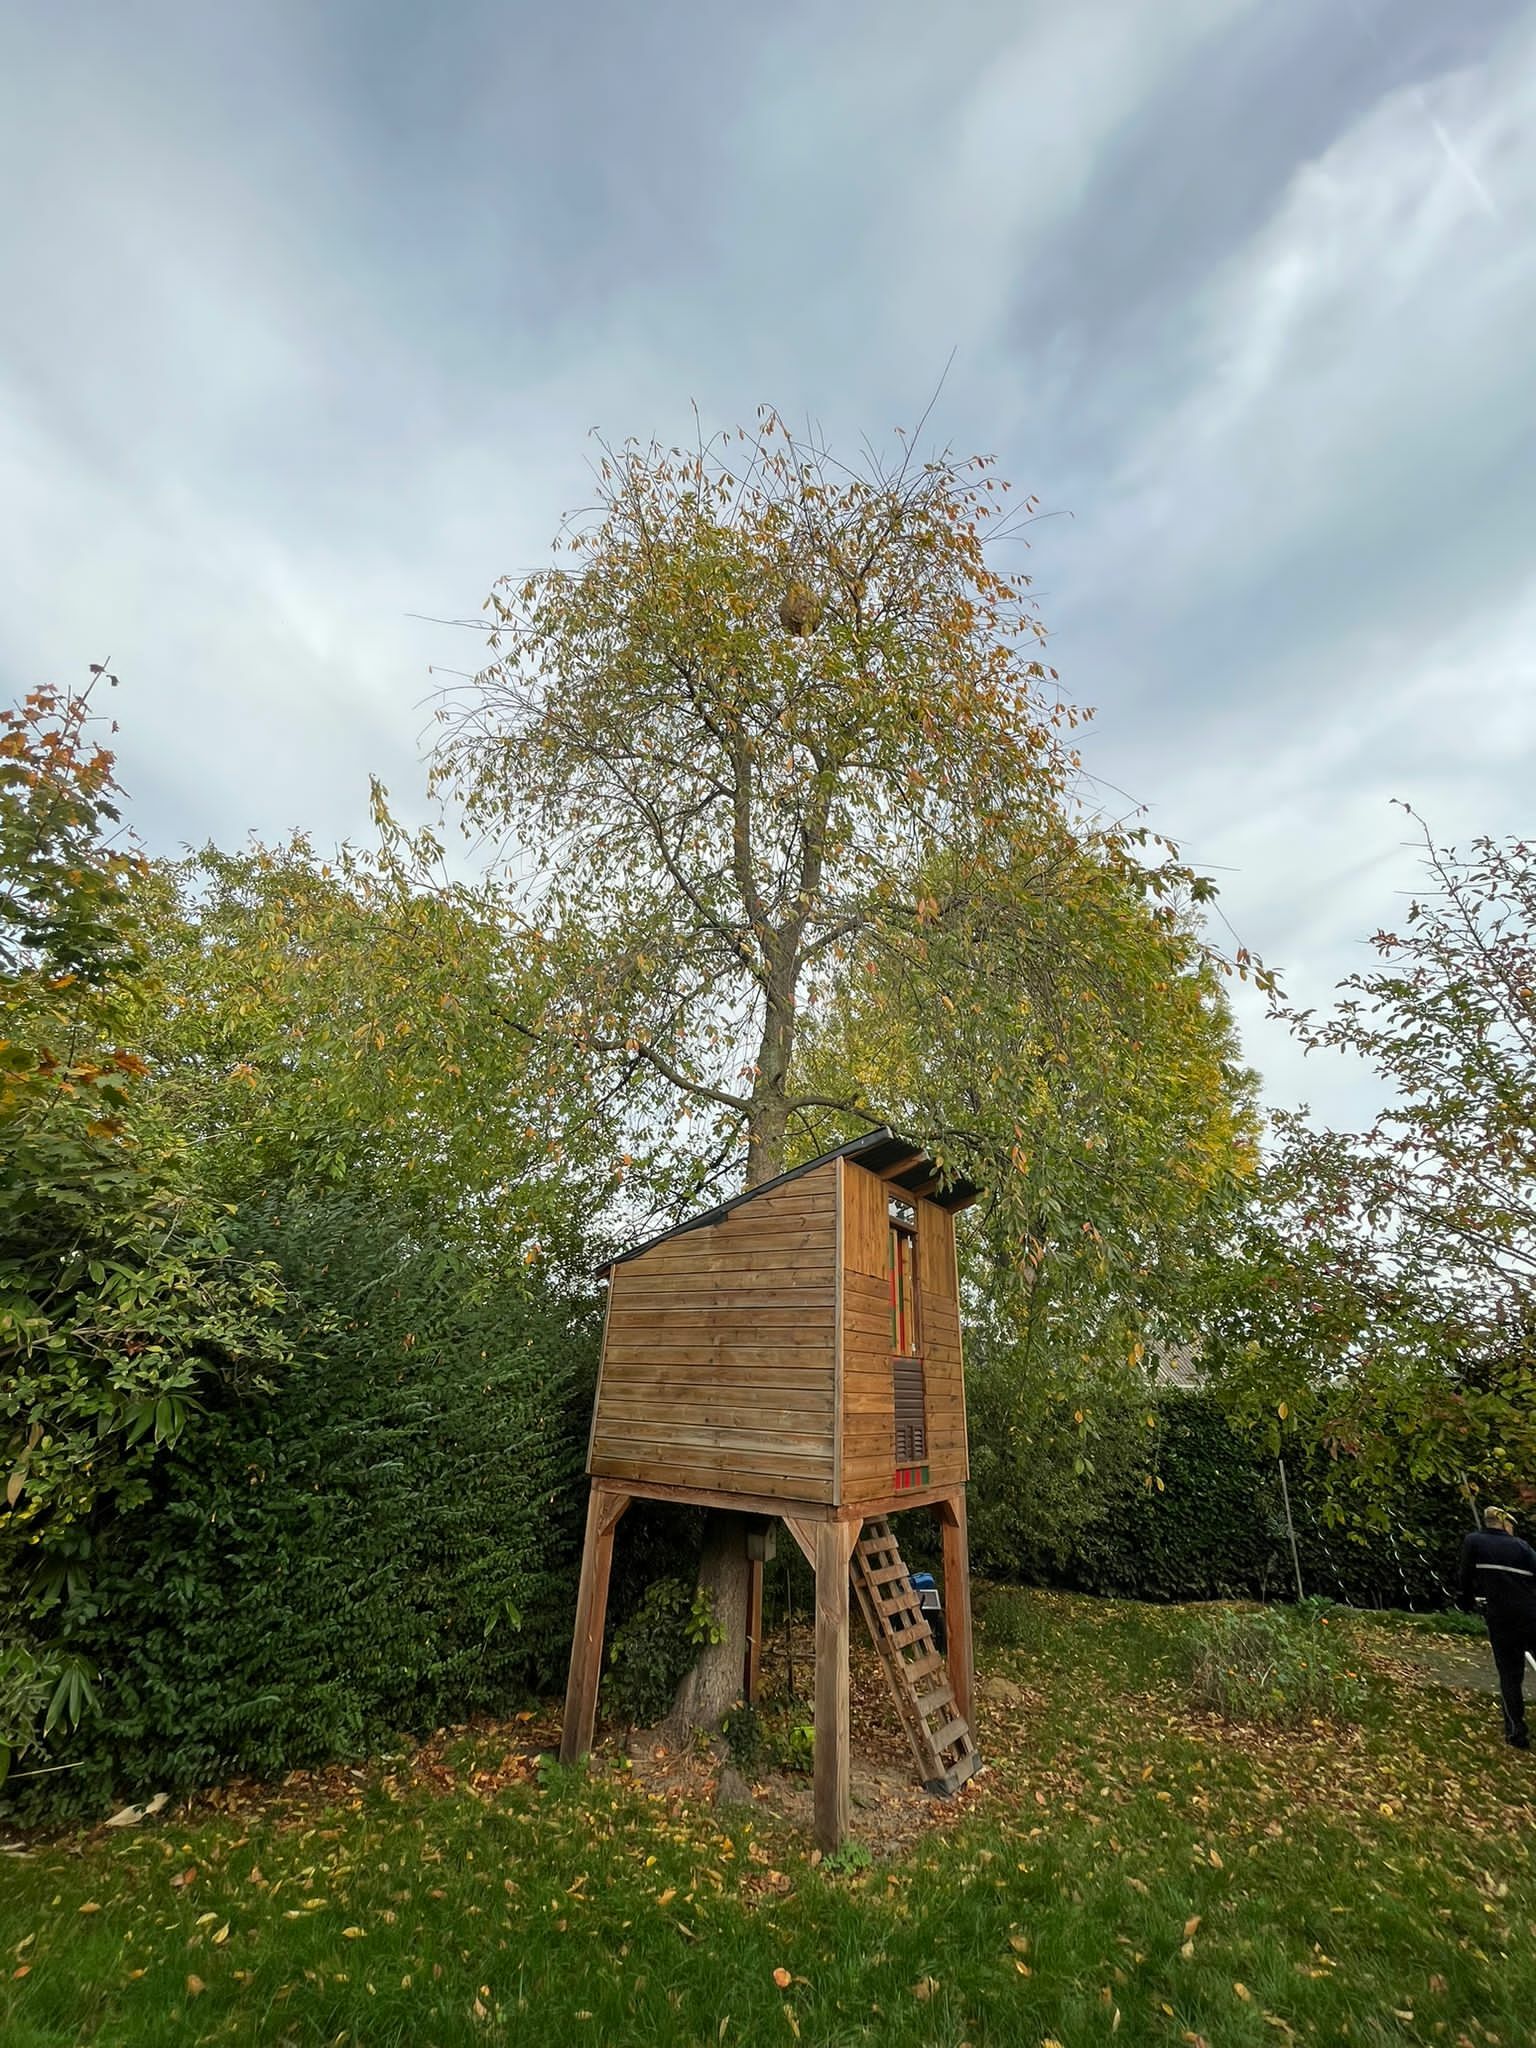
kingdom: Animalia
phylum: Arthropoda
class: Insecta
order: Hymenoptera
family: Vespidae
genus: Vespa
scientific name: Vespa velutina
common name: Asian hornet
